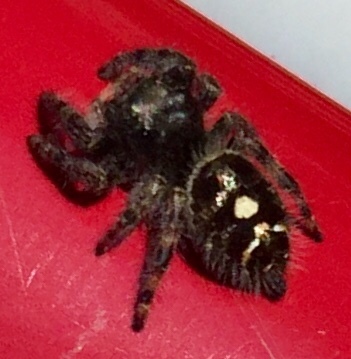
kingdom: Animalia
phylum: Arthropoda
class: Arachnida
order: Araneae
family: Salticidae
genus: Phidippus
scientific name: Phidippus audax
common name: Bold jumper
